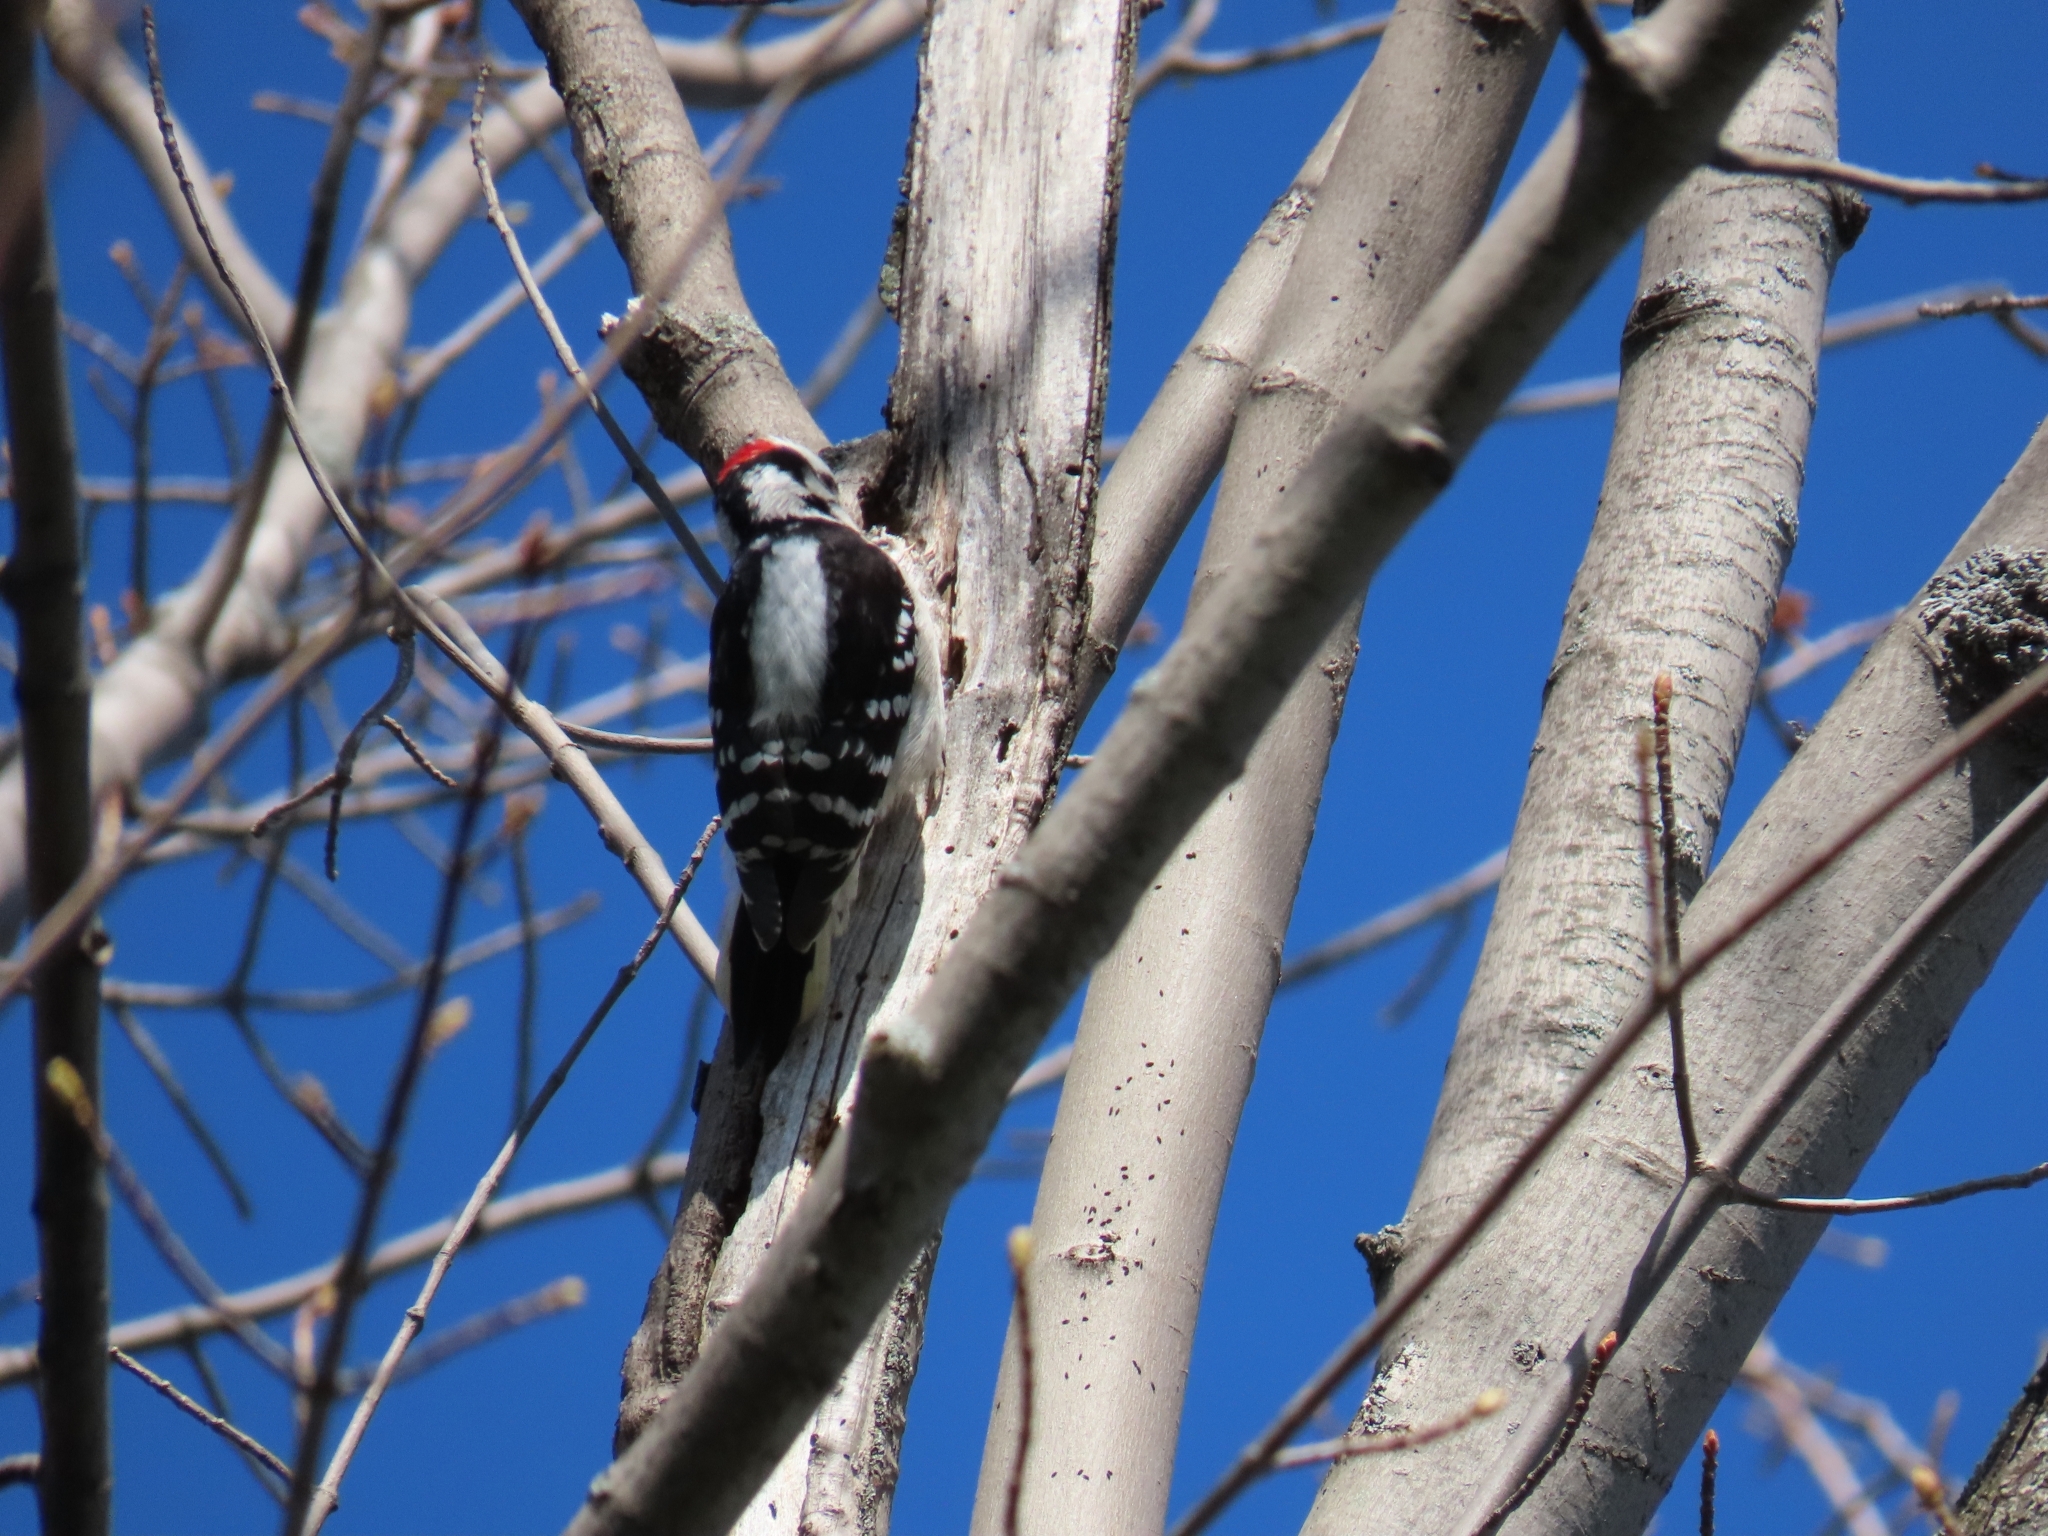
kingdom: Animalia
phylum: Chordata
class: Aves
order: Piciformes
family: Picidae
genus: Dryobates
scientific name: Dryobates pubescens
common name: Downy woodpecker
